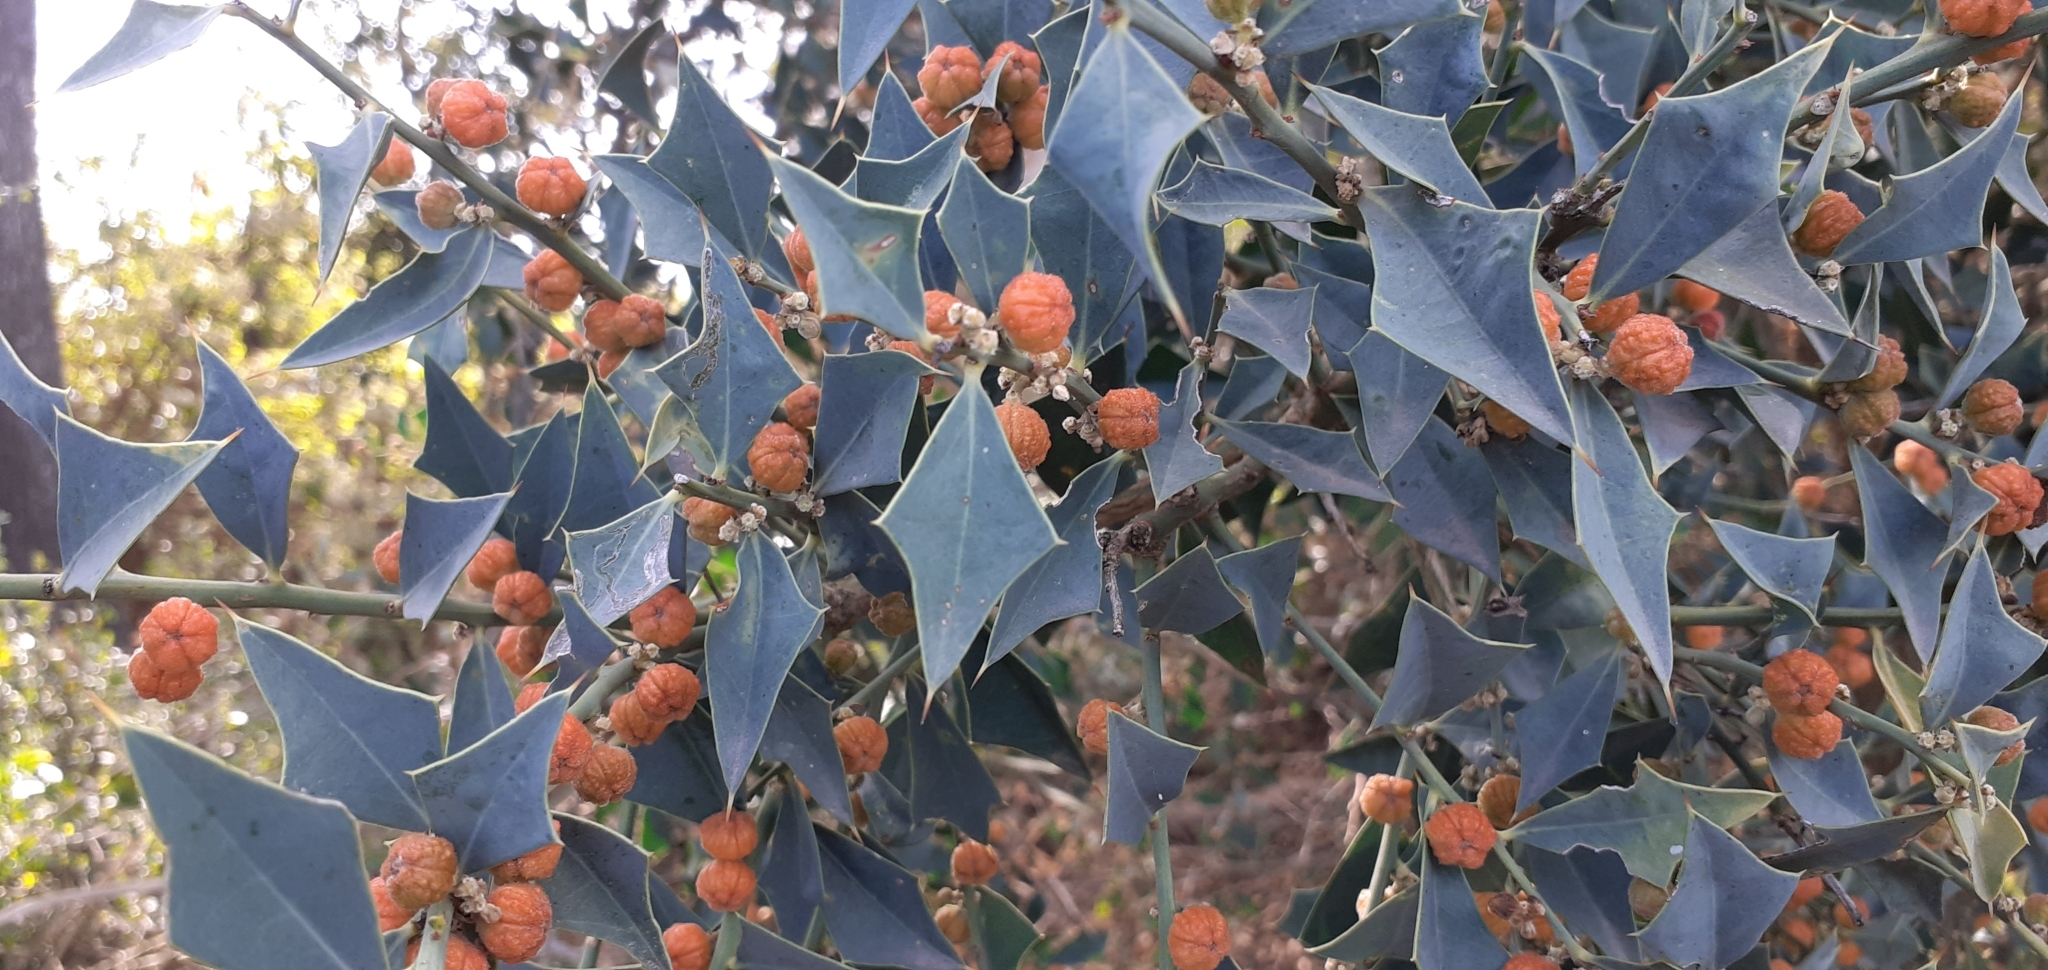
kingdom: Plantae
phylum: Tracheophyta
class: Magnoliopsida
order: Santalales
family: Cervantesiaceae
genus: Jodina
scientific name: Jodina rhombifolia
